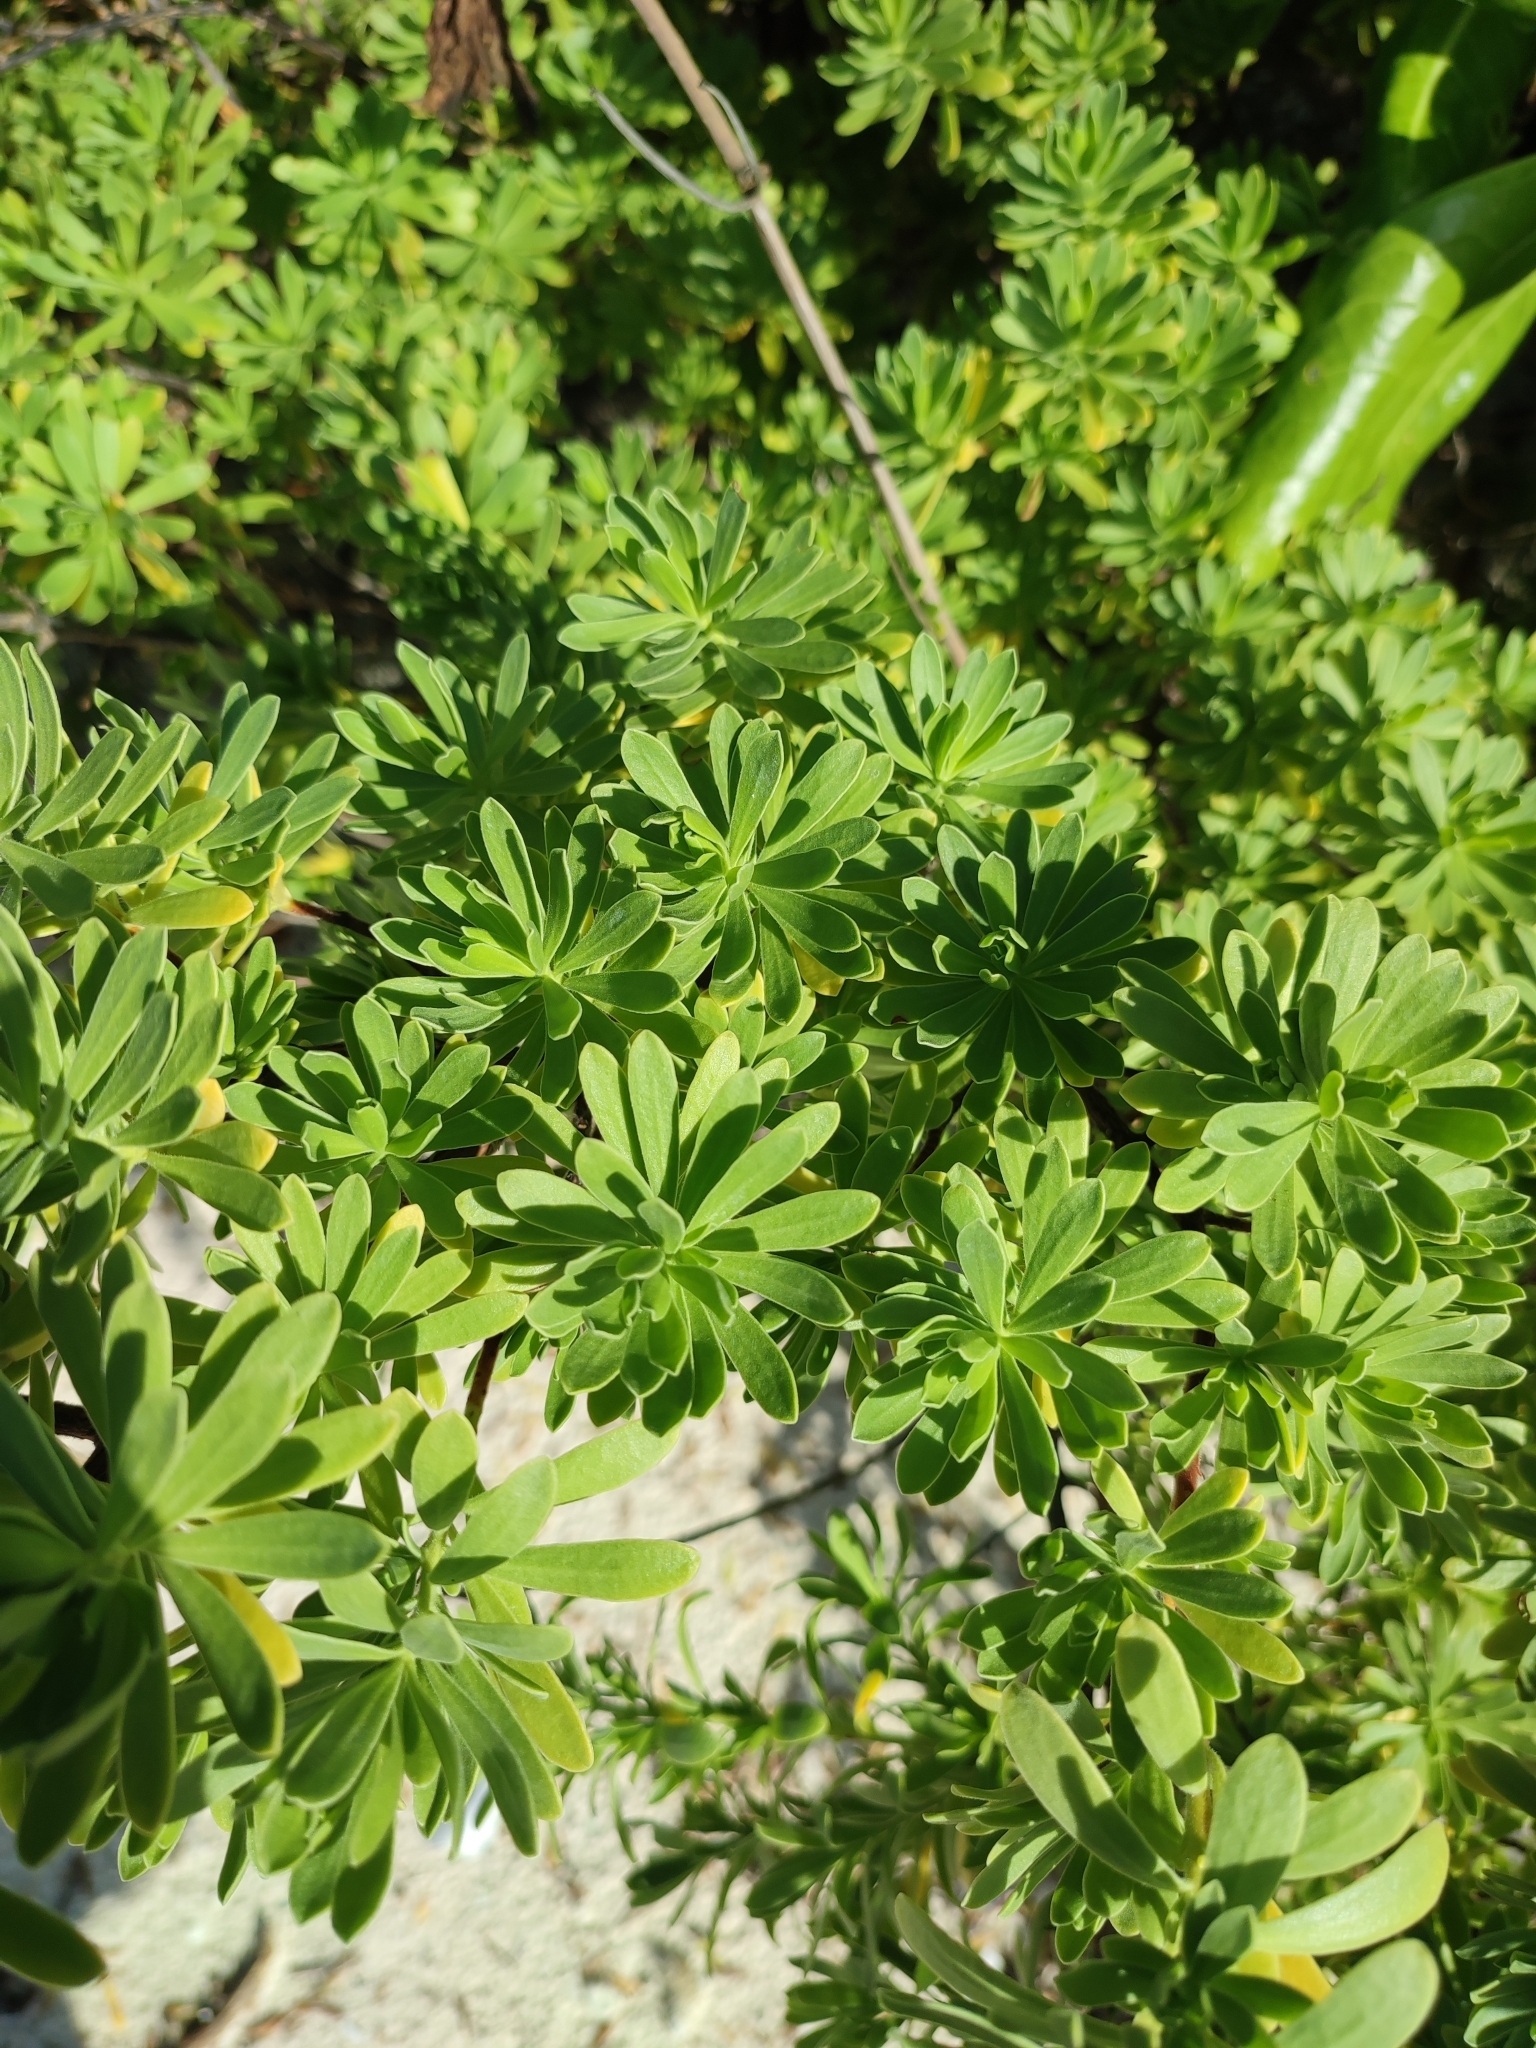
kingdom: Plantae
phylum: Tracheophyta
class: Magnoliopsida
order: Fabales
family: Surianaceae
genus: Suriana
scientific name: Suriana maritima
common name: Bay-cedar
